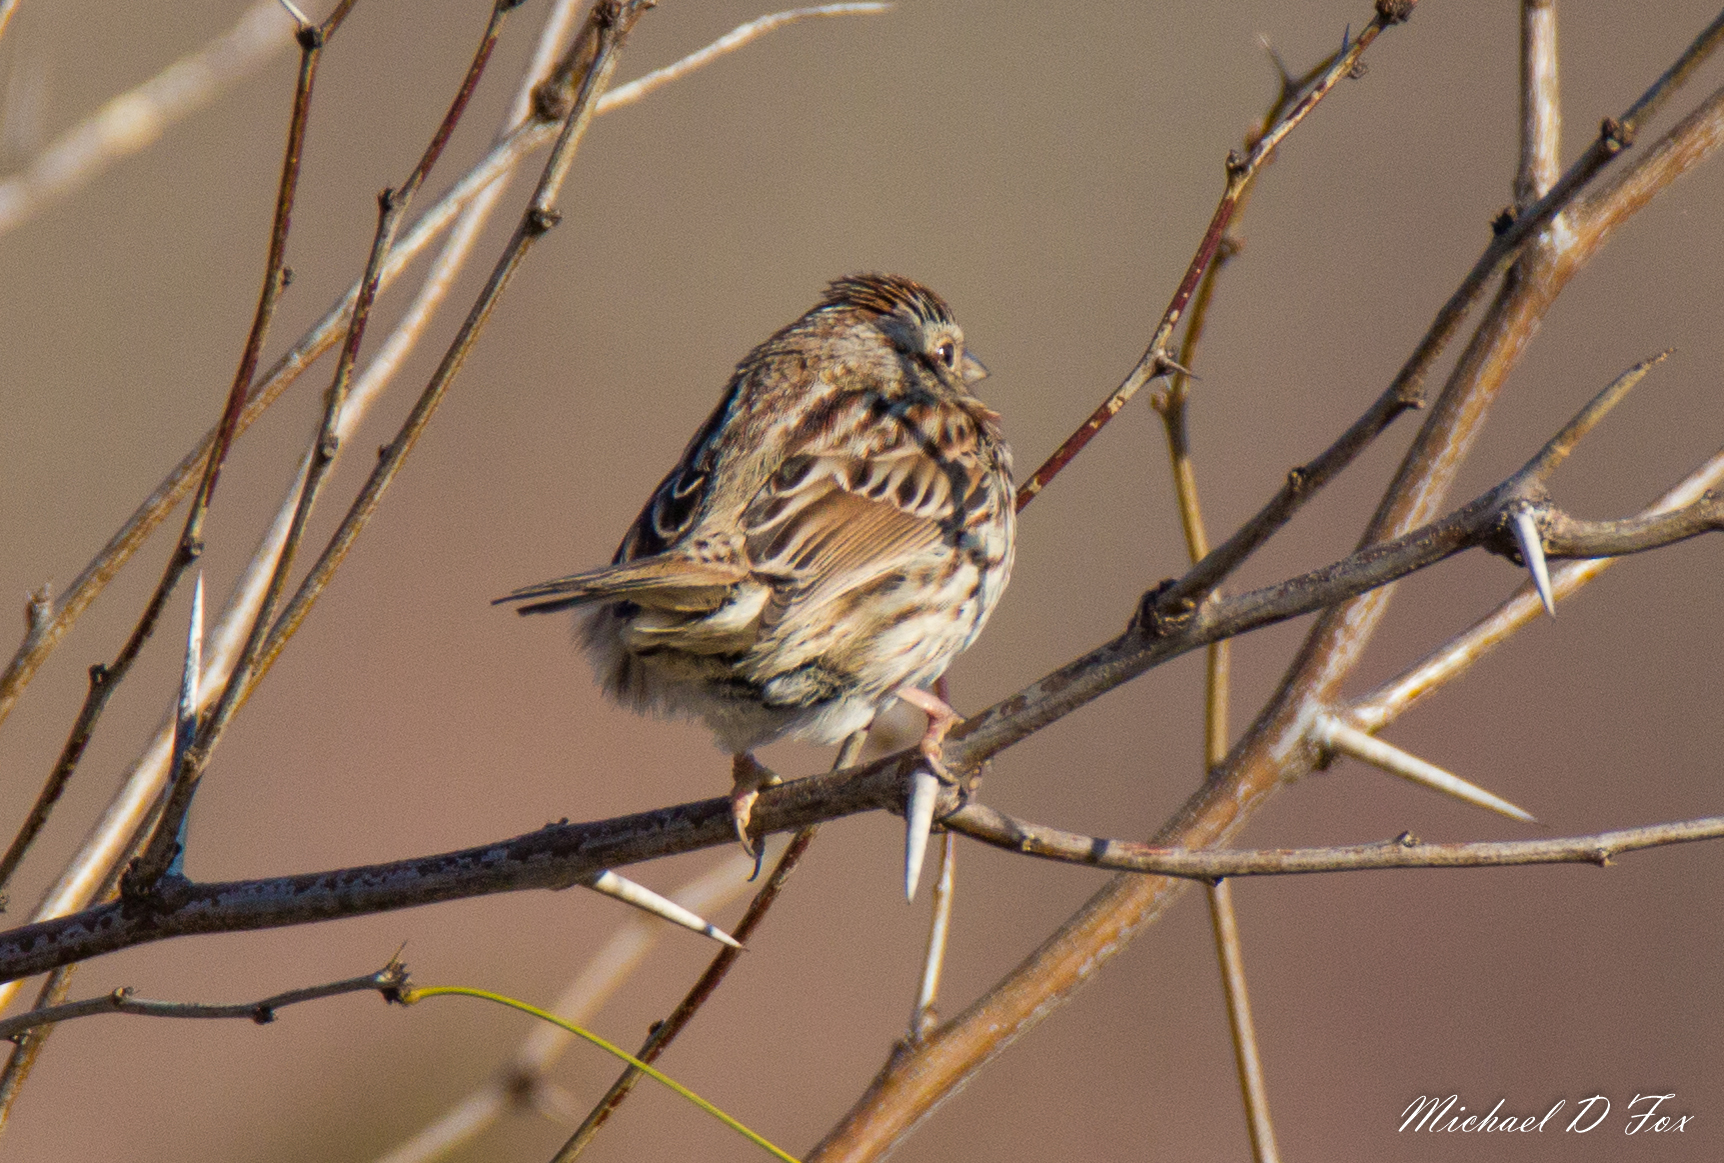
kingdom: Animalia
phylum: Chordata
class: Aves
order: Passeriformes
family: Passerellidae
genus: Melospiza
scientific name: Melospiza melodia
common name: Song sparrow
